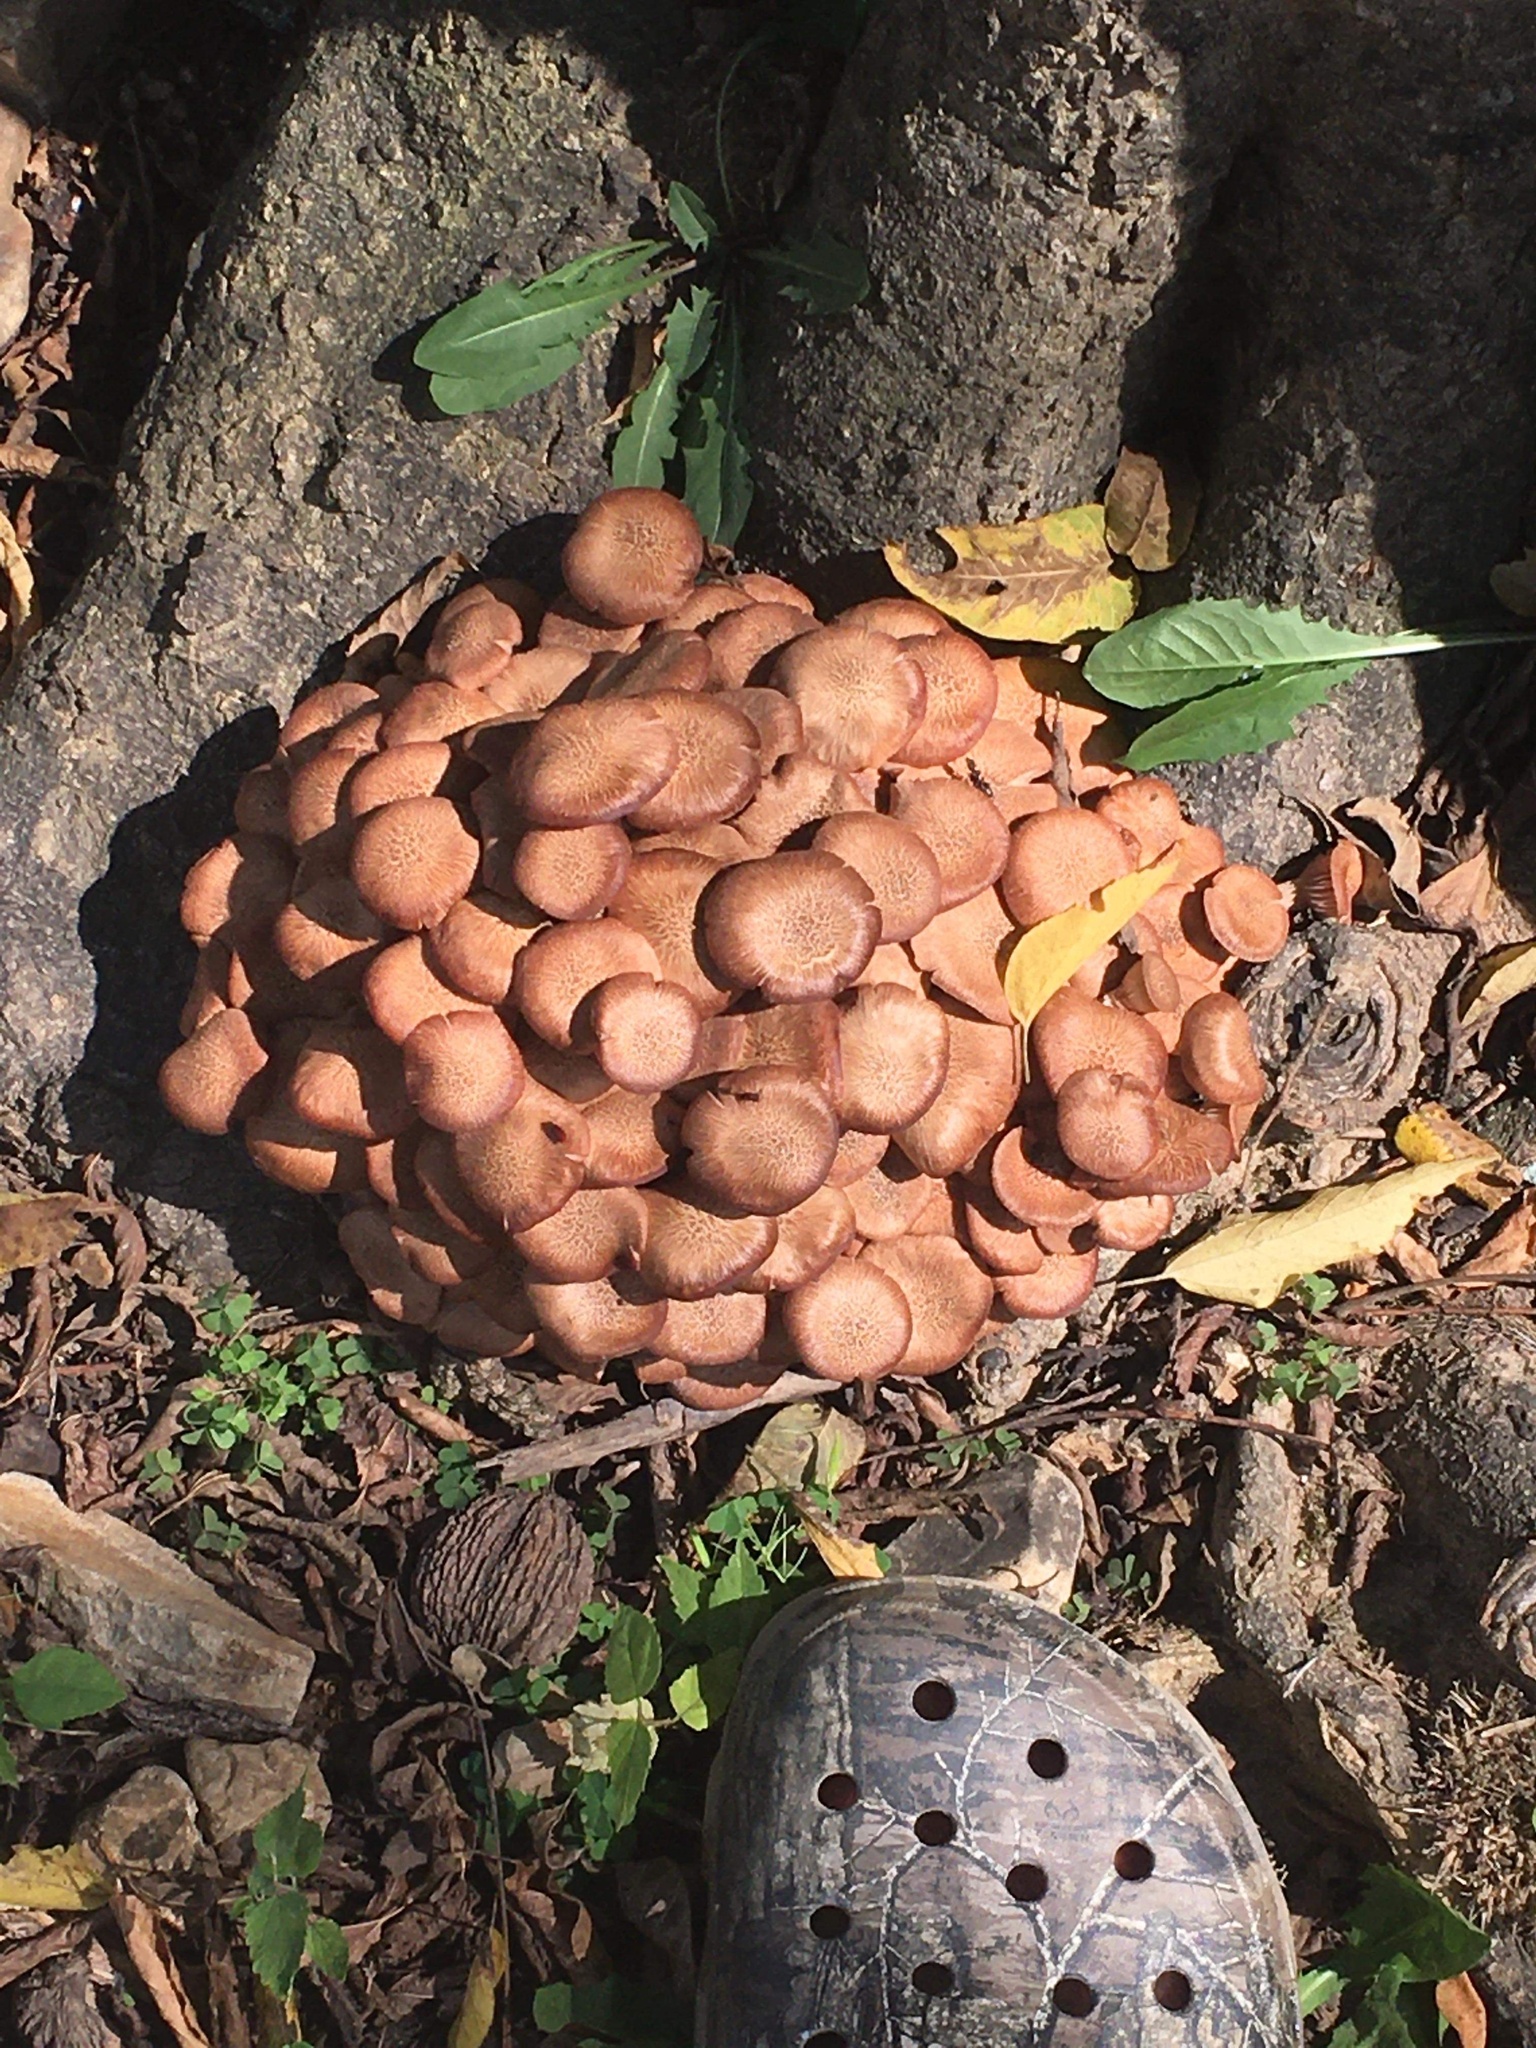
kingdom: Fungi
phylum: Basidiomycota
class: Agaricomycetes
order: Agaricales
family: Physalacriaceae
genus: Desarmillaria
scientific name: Desarmillaria caespitosa
